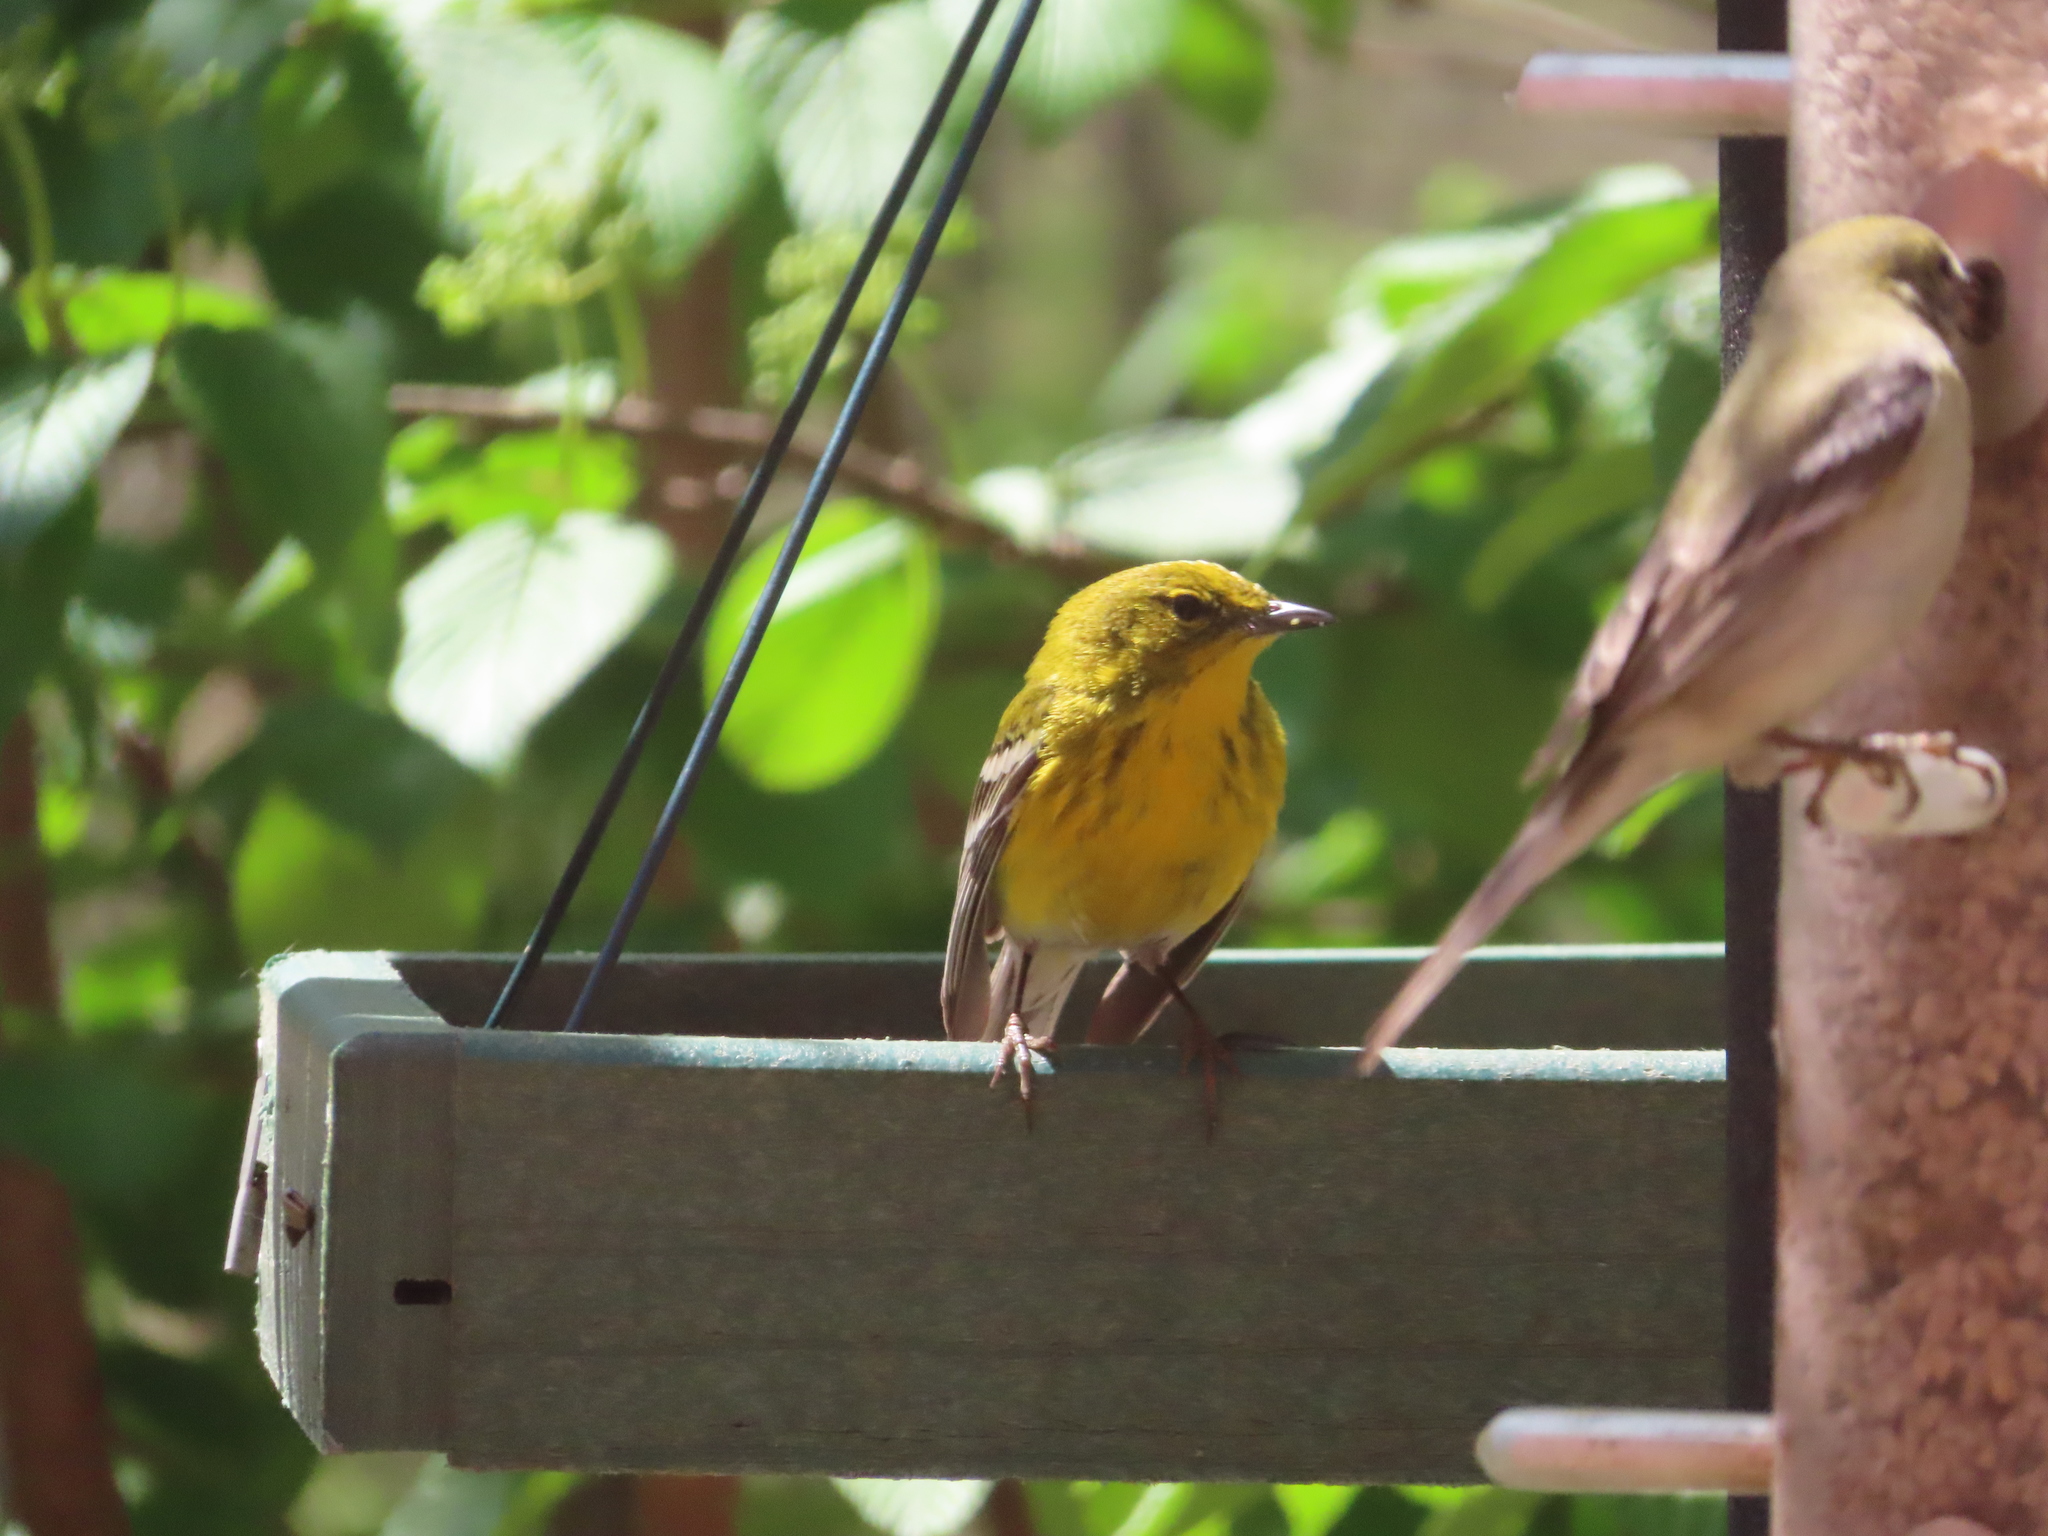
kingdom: Animalia
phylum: Chordata
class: Aves
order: Passeriformes
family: Parulidae
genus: Setophaga
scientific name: Setophaga pinus
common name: Pine warbler
